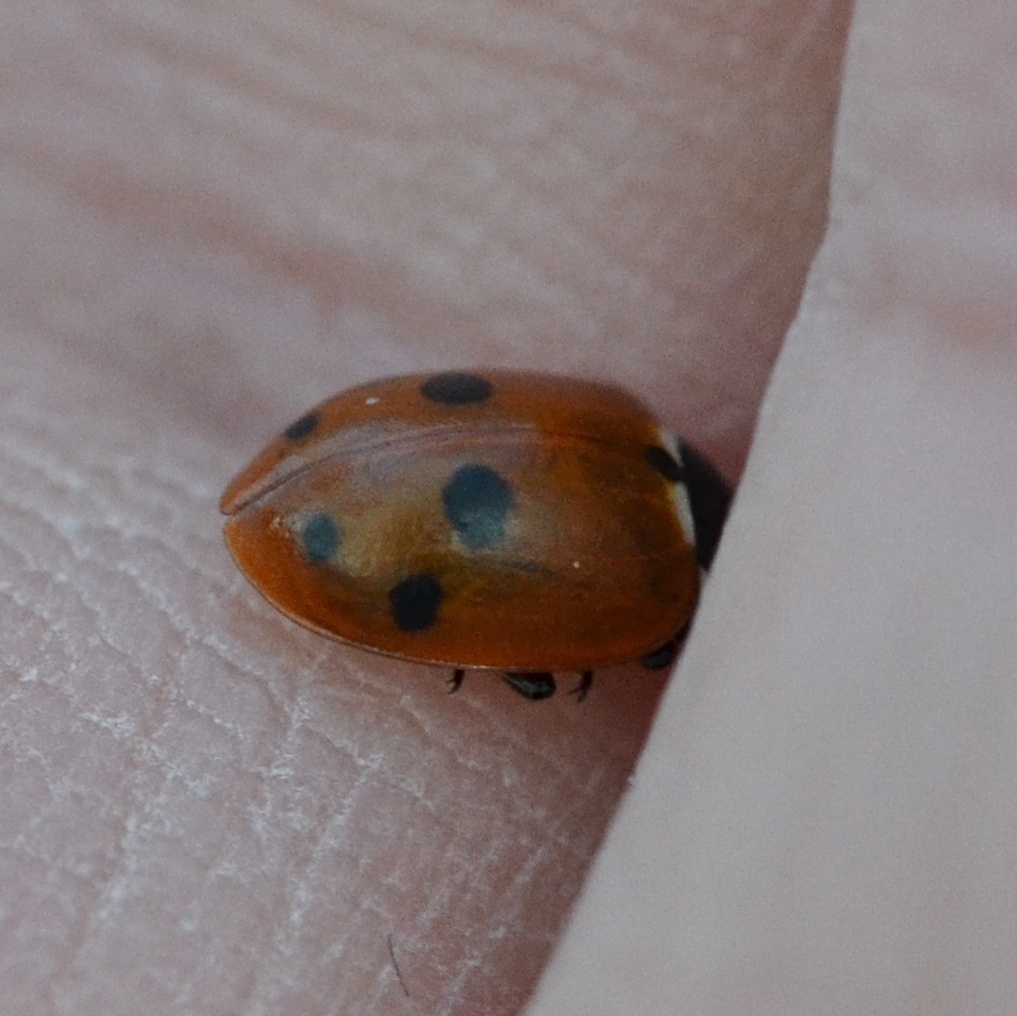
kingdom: Animalia
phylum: Arthropoda
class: Insecta
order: Coleoptera
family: Coccinellidae
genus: Hippodamia
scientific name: Hippodamia variegata
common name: Ladybird beetle
